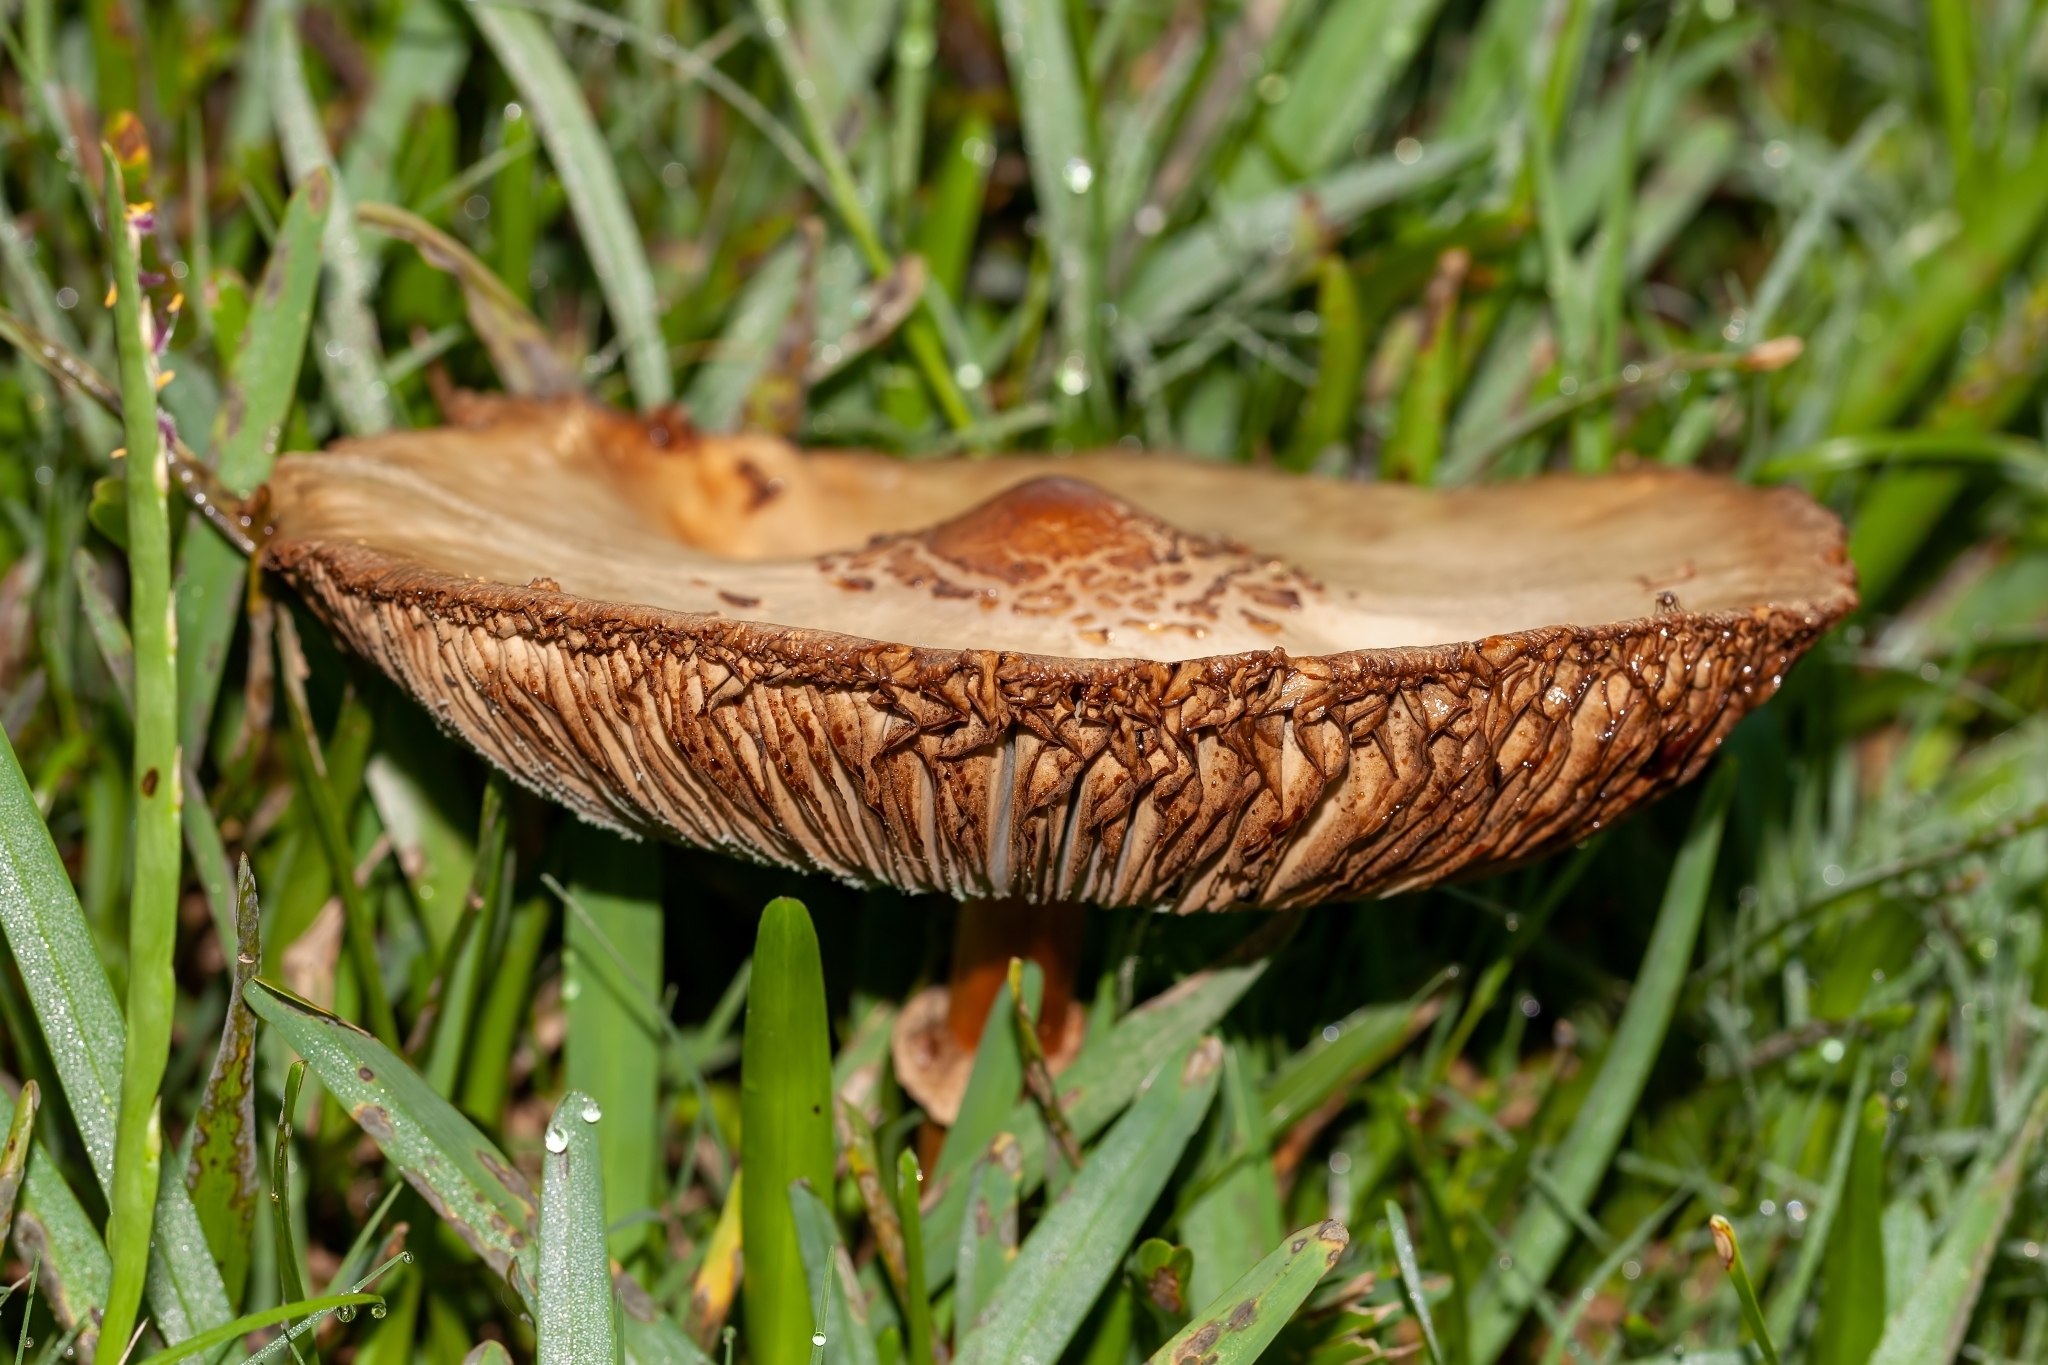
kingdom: Fungi
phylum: Basidiomycota
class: Agaricomycetes
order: Agaricales
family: Agaricaceae
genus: Chlorophyllum
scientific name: Chlorophyllum molybdites
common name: False parasol
